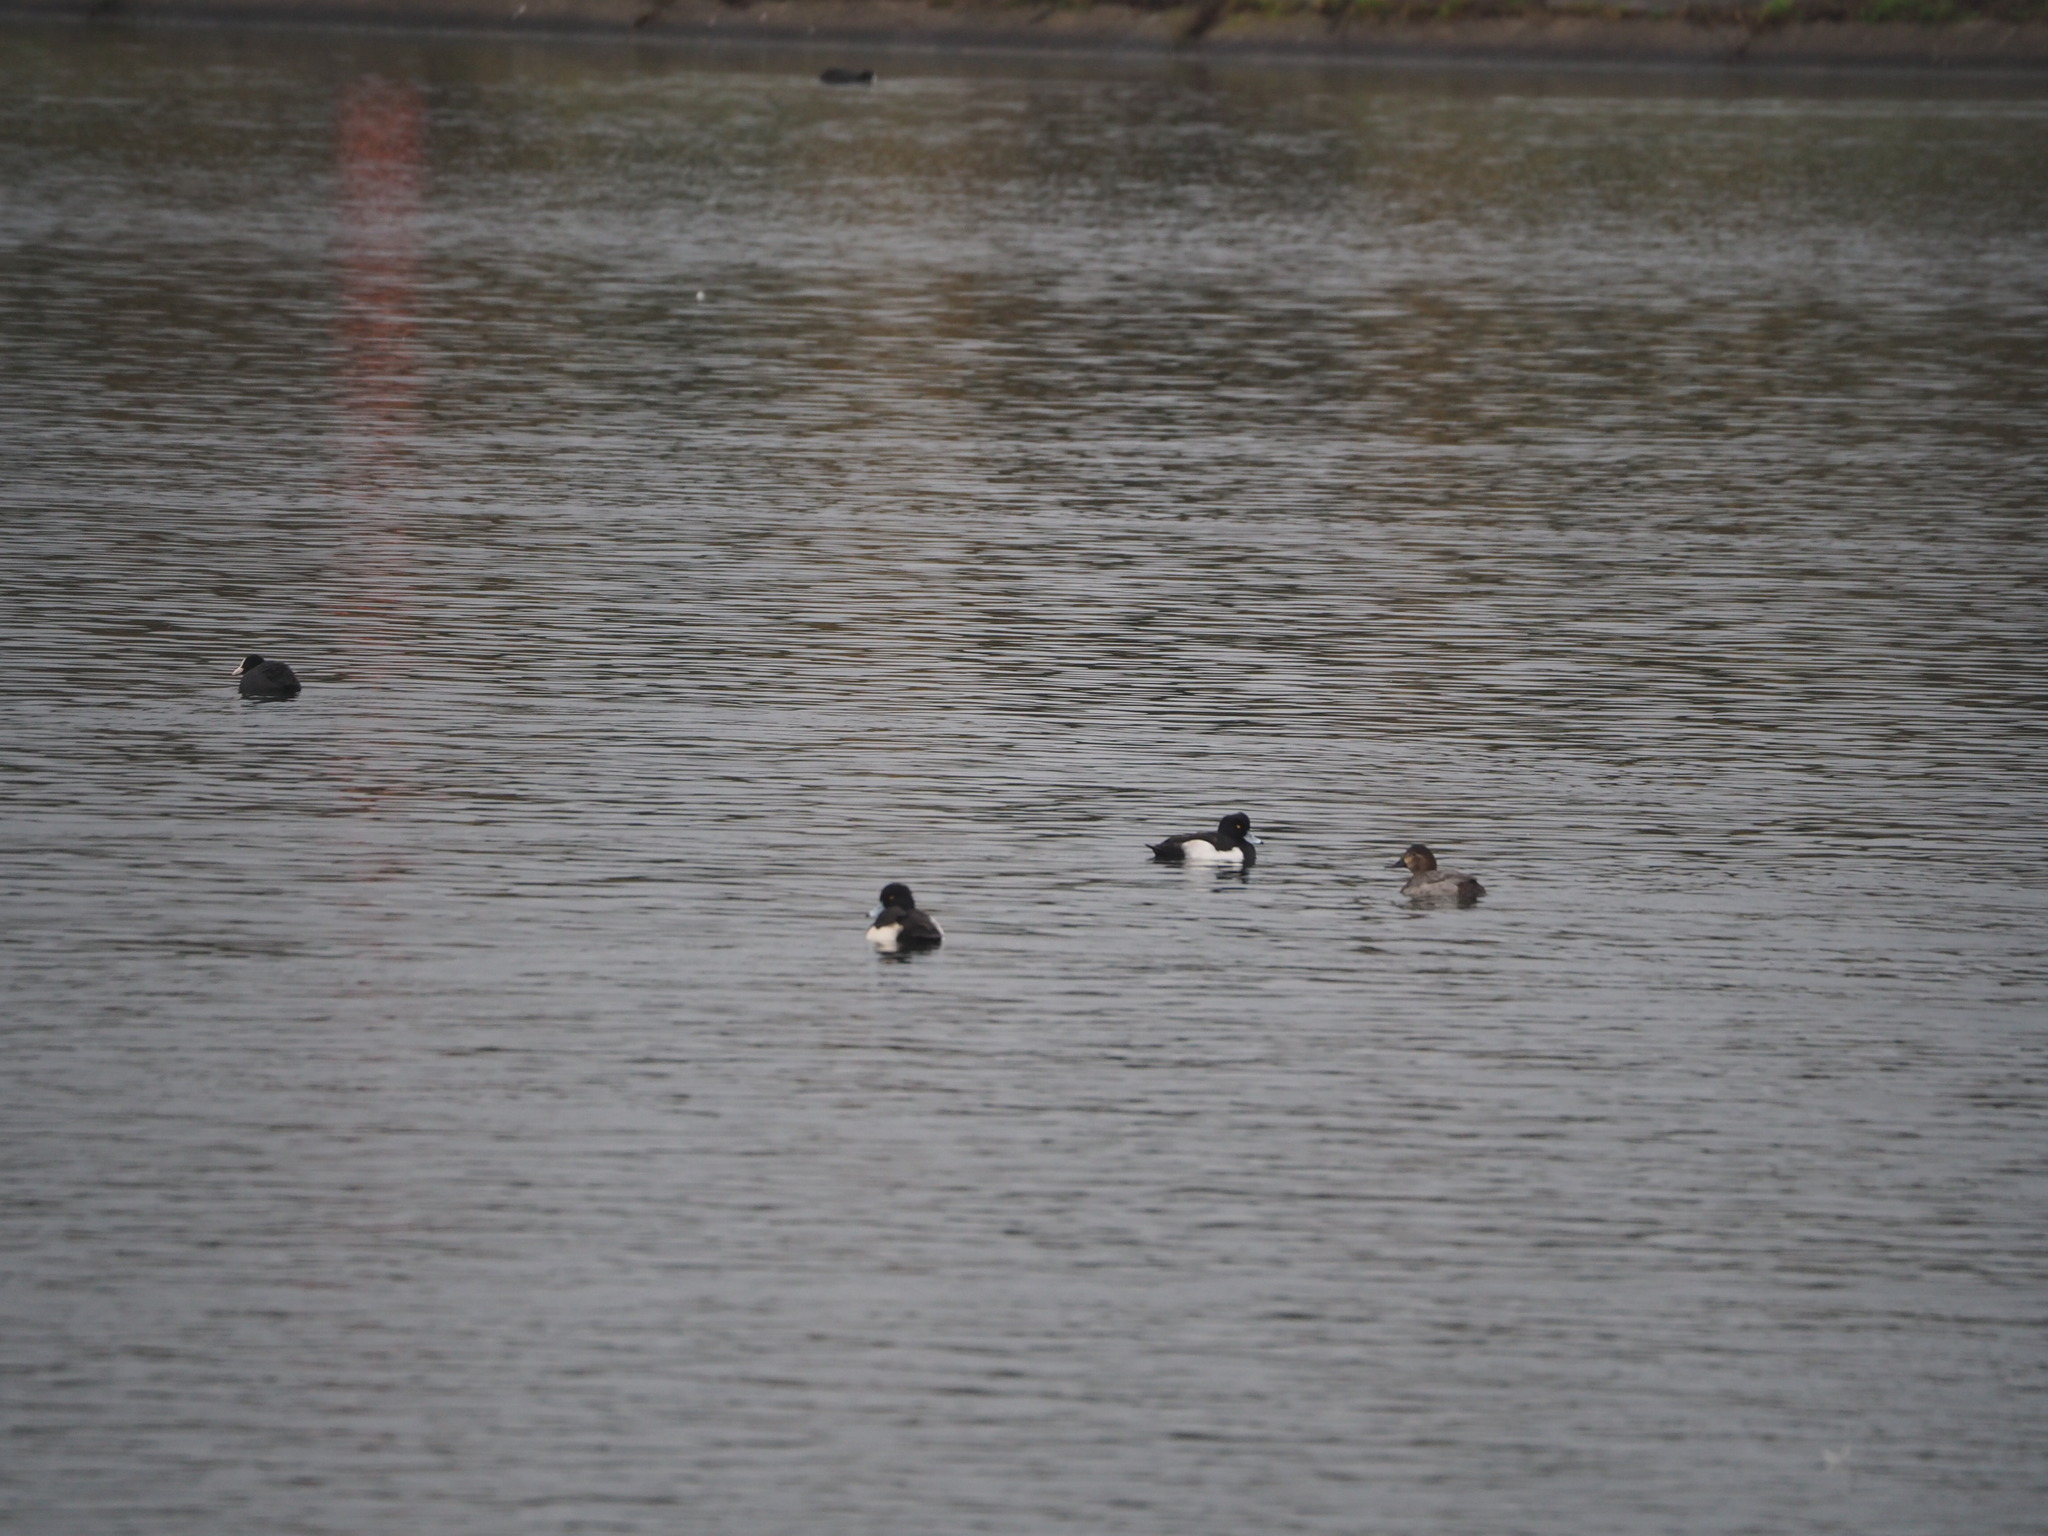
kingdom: Animalia
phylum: Chordata
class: Aves
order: Anseriformes
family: Anatidae
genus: Aythya
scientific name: Aythya fuligula
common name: Tufted duck
